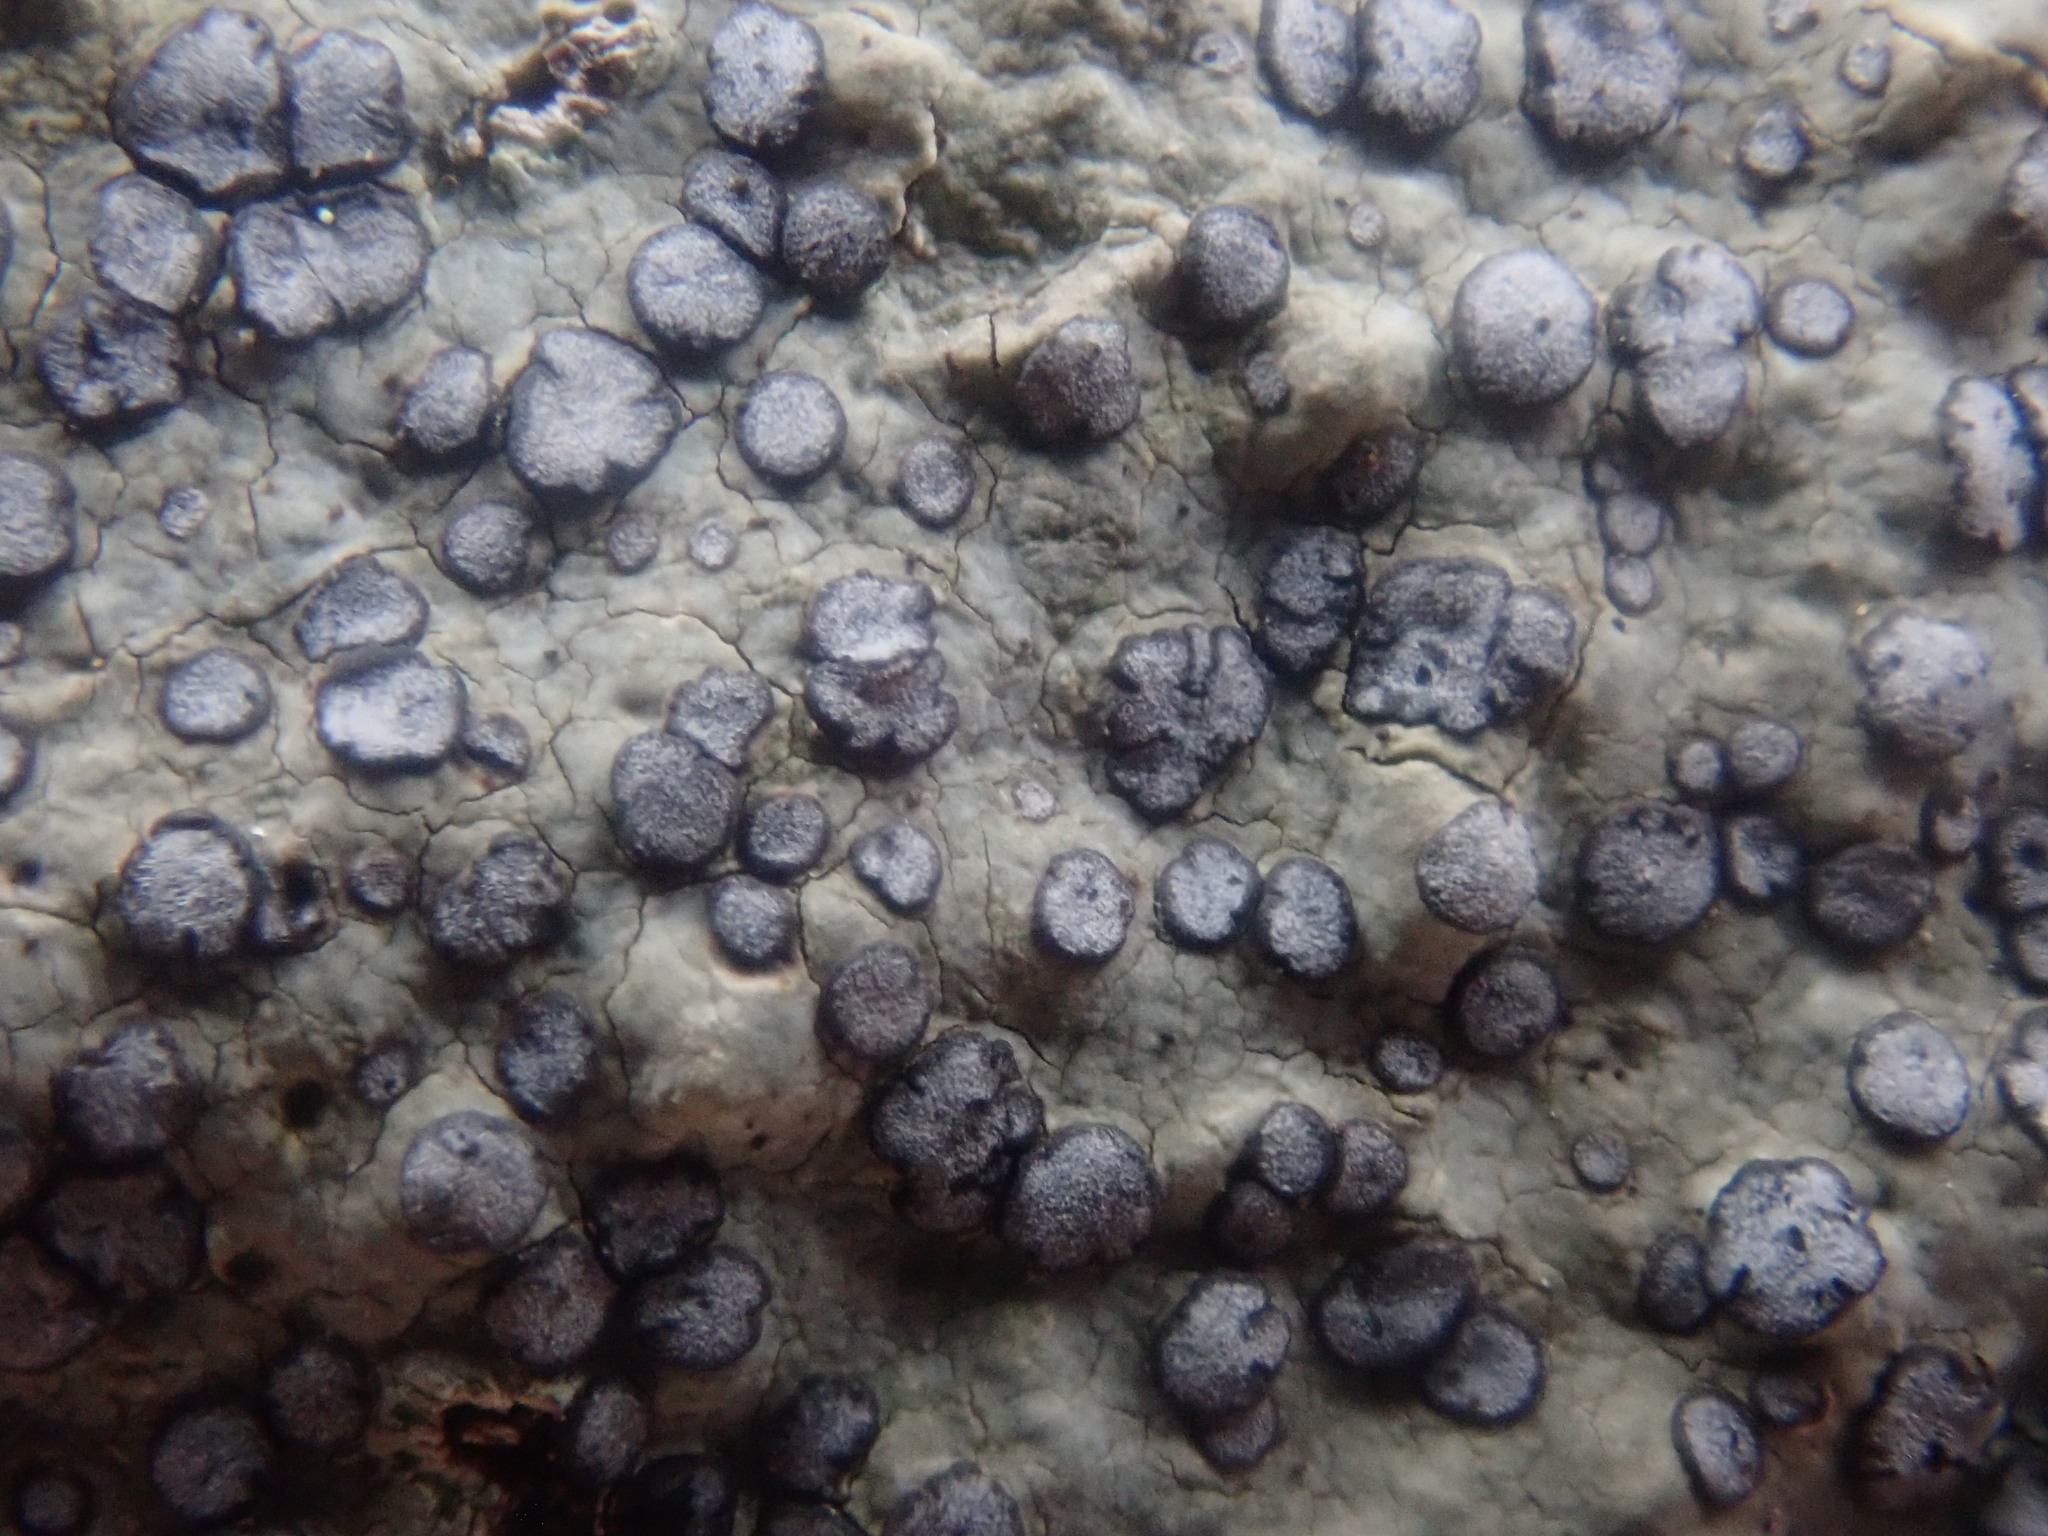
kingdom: Fungi
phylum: Ascomycota
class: Lecanoromycetes
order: Lecideales
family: Lecideaceae
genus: Porpidia
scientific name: Porpidia albocaerulescens
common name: Smokey-eyed boulder lichen
